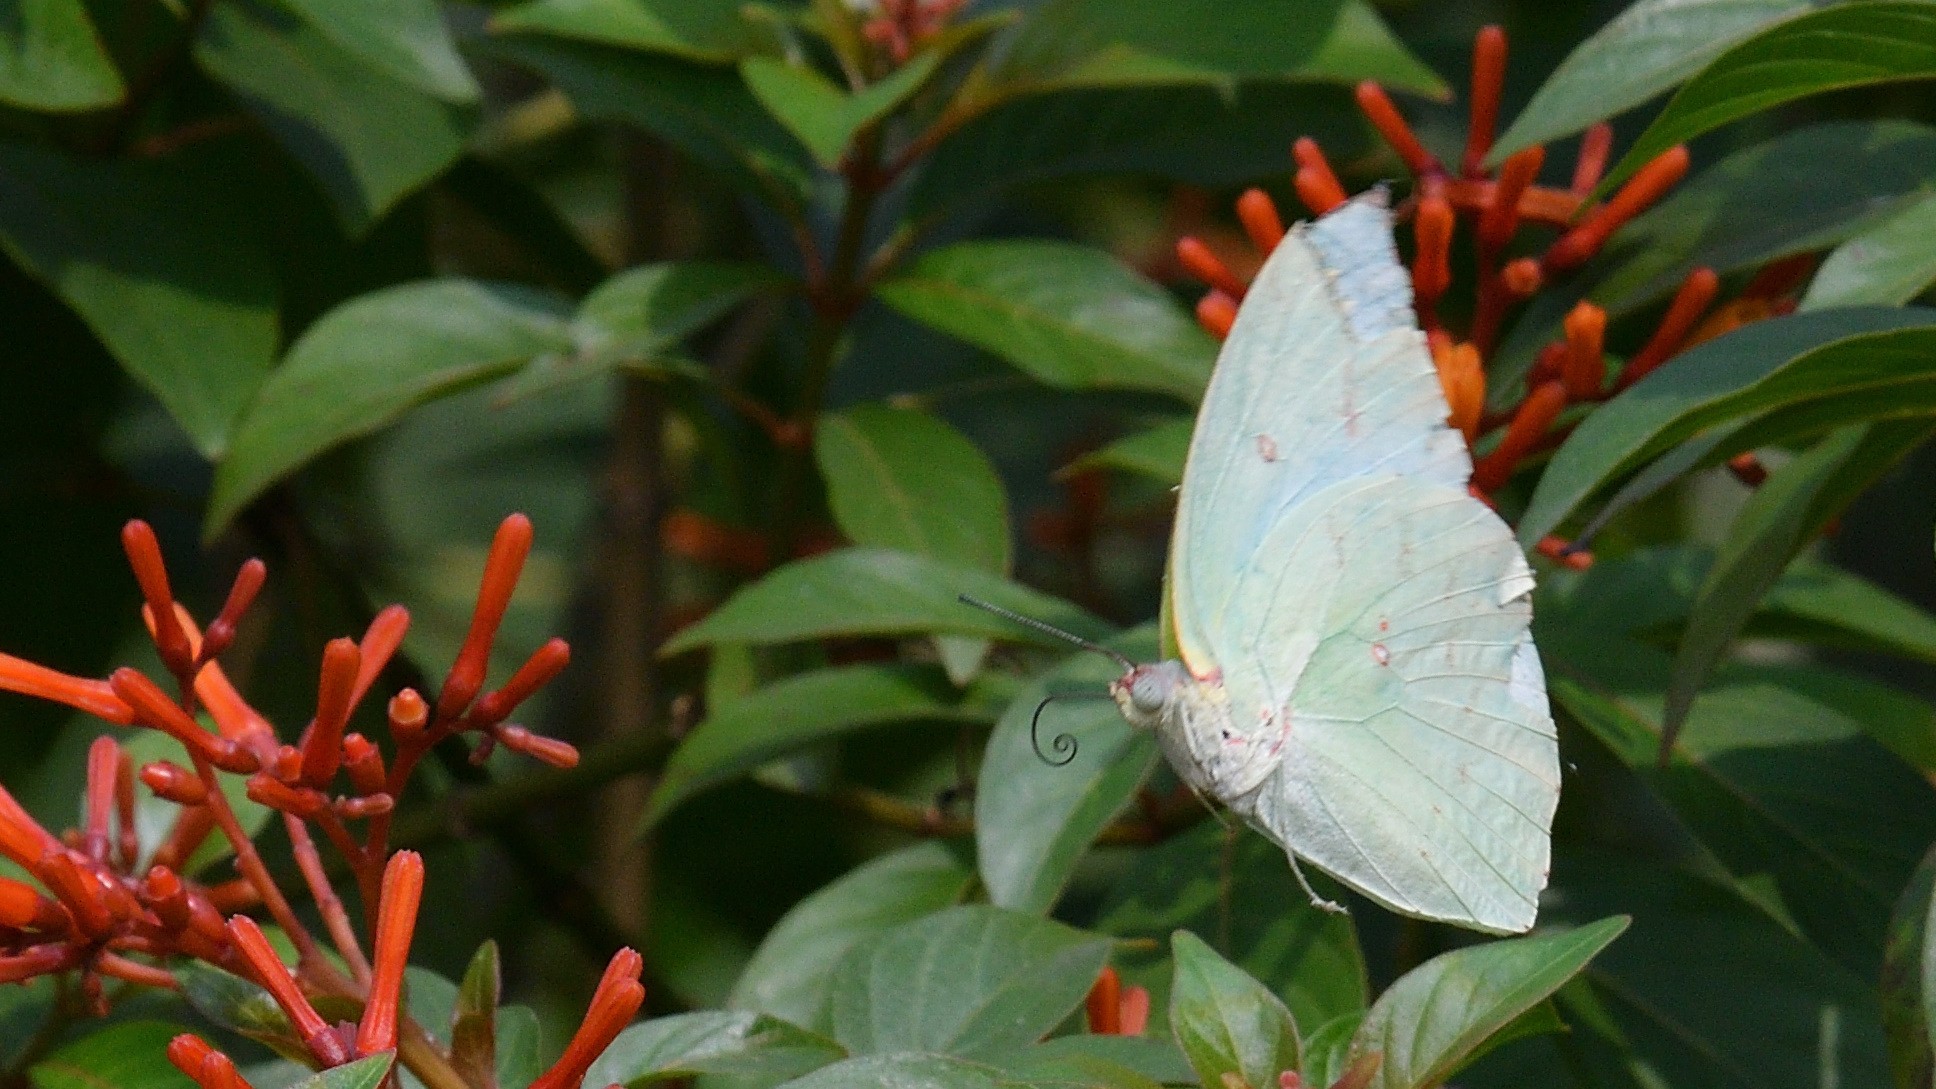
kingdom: Animalia
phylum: Arthropoda
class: Insecta
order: Lepidoptera
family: Pieridae
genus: Catopsilia
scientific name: Catopsilia pomona
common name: Common emigrant
